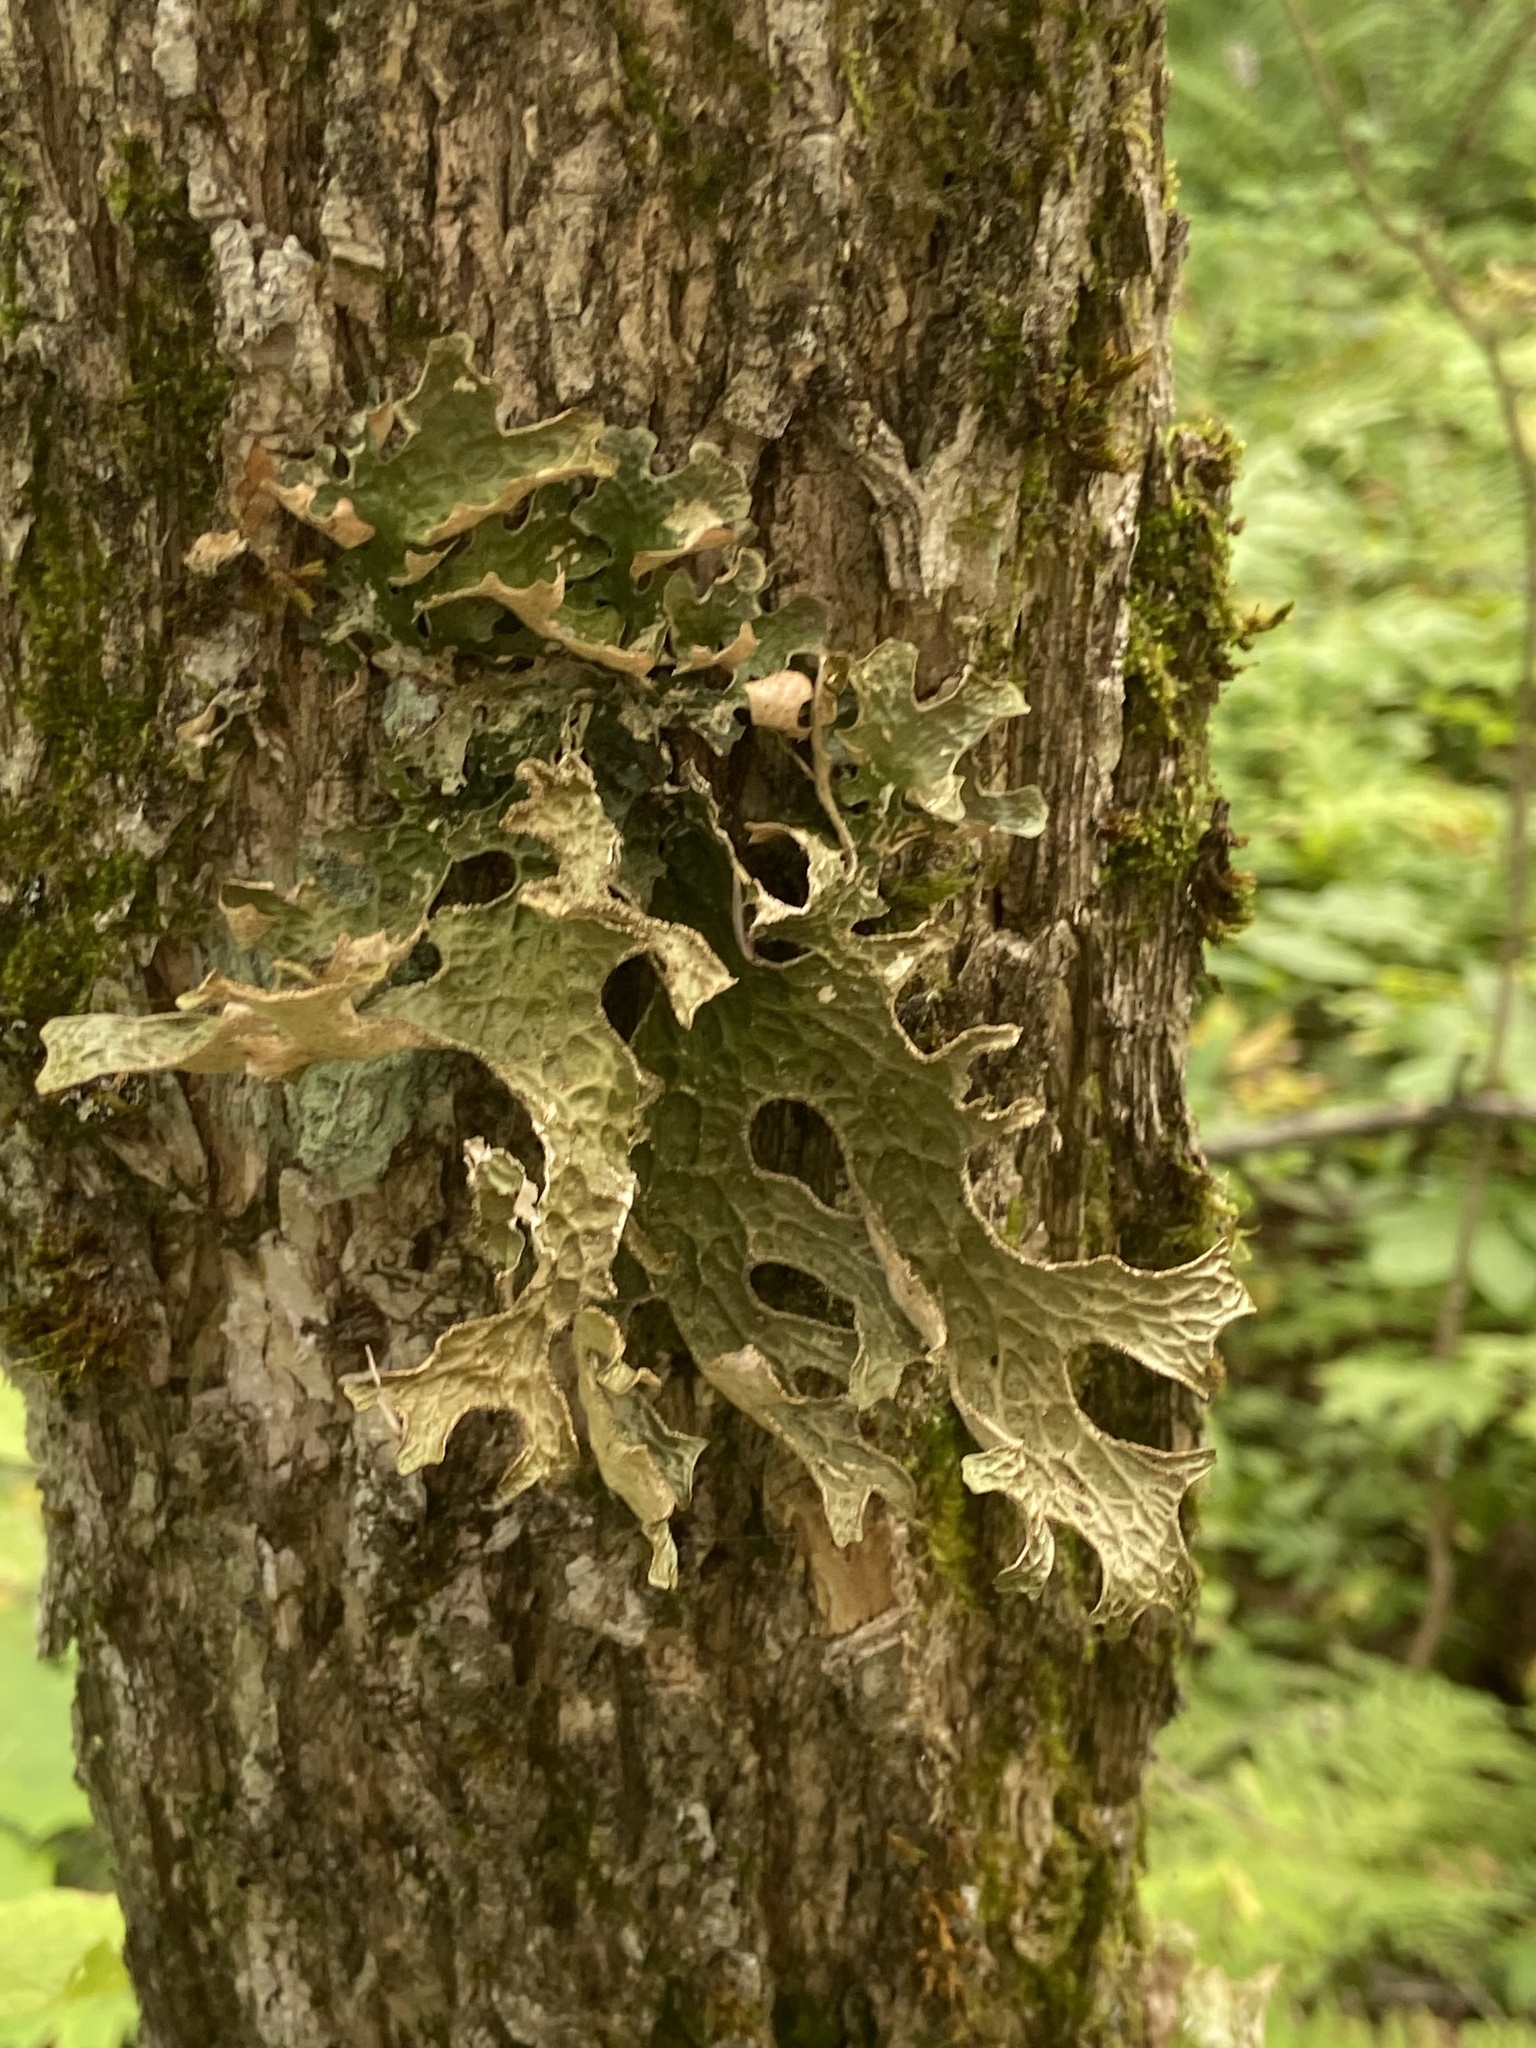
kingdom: Fungi
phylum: Ascomycota
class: Lecanoromycetes
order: Peltigerales
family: Lobariaceae
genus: Lobaria
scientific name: Lobaria pulmonaria
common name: Lungwort
